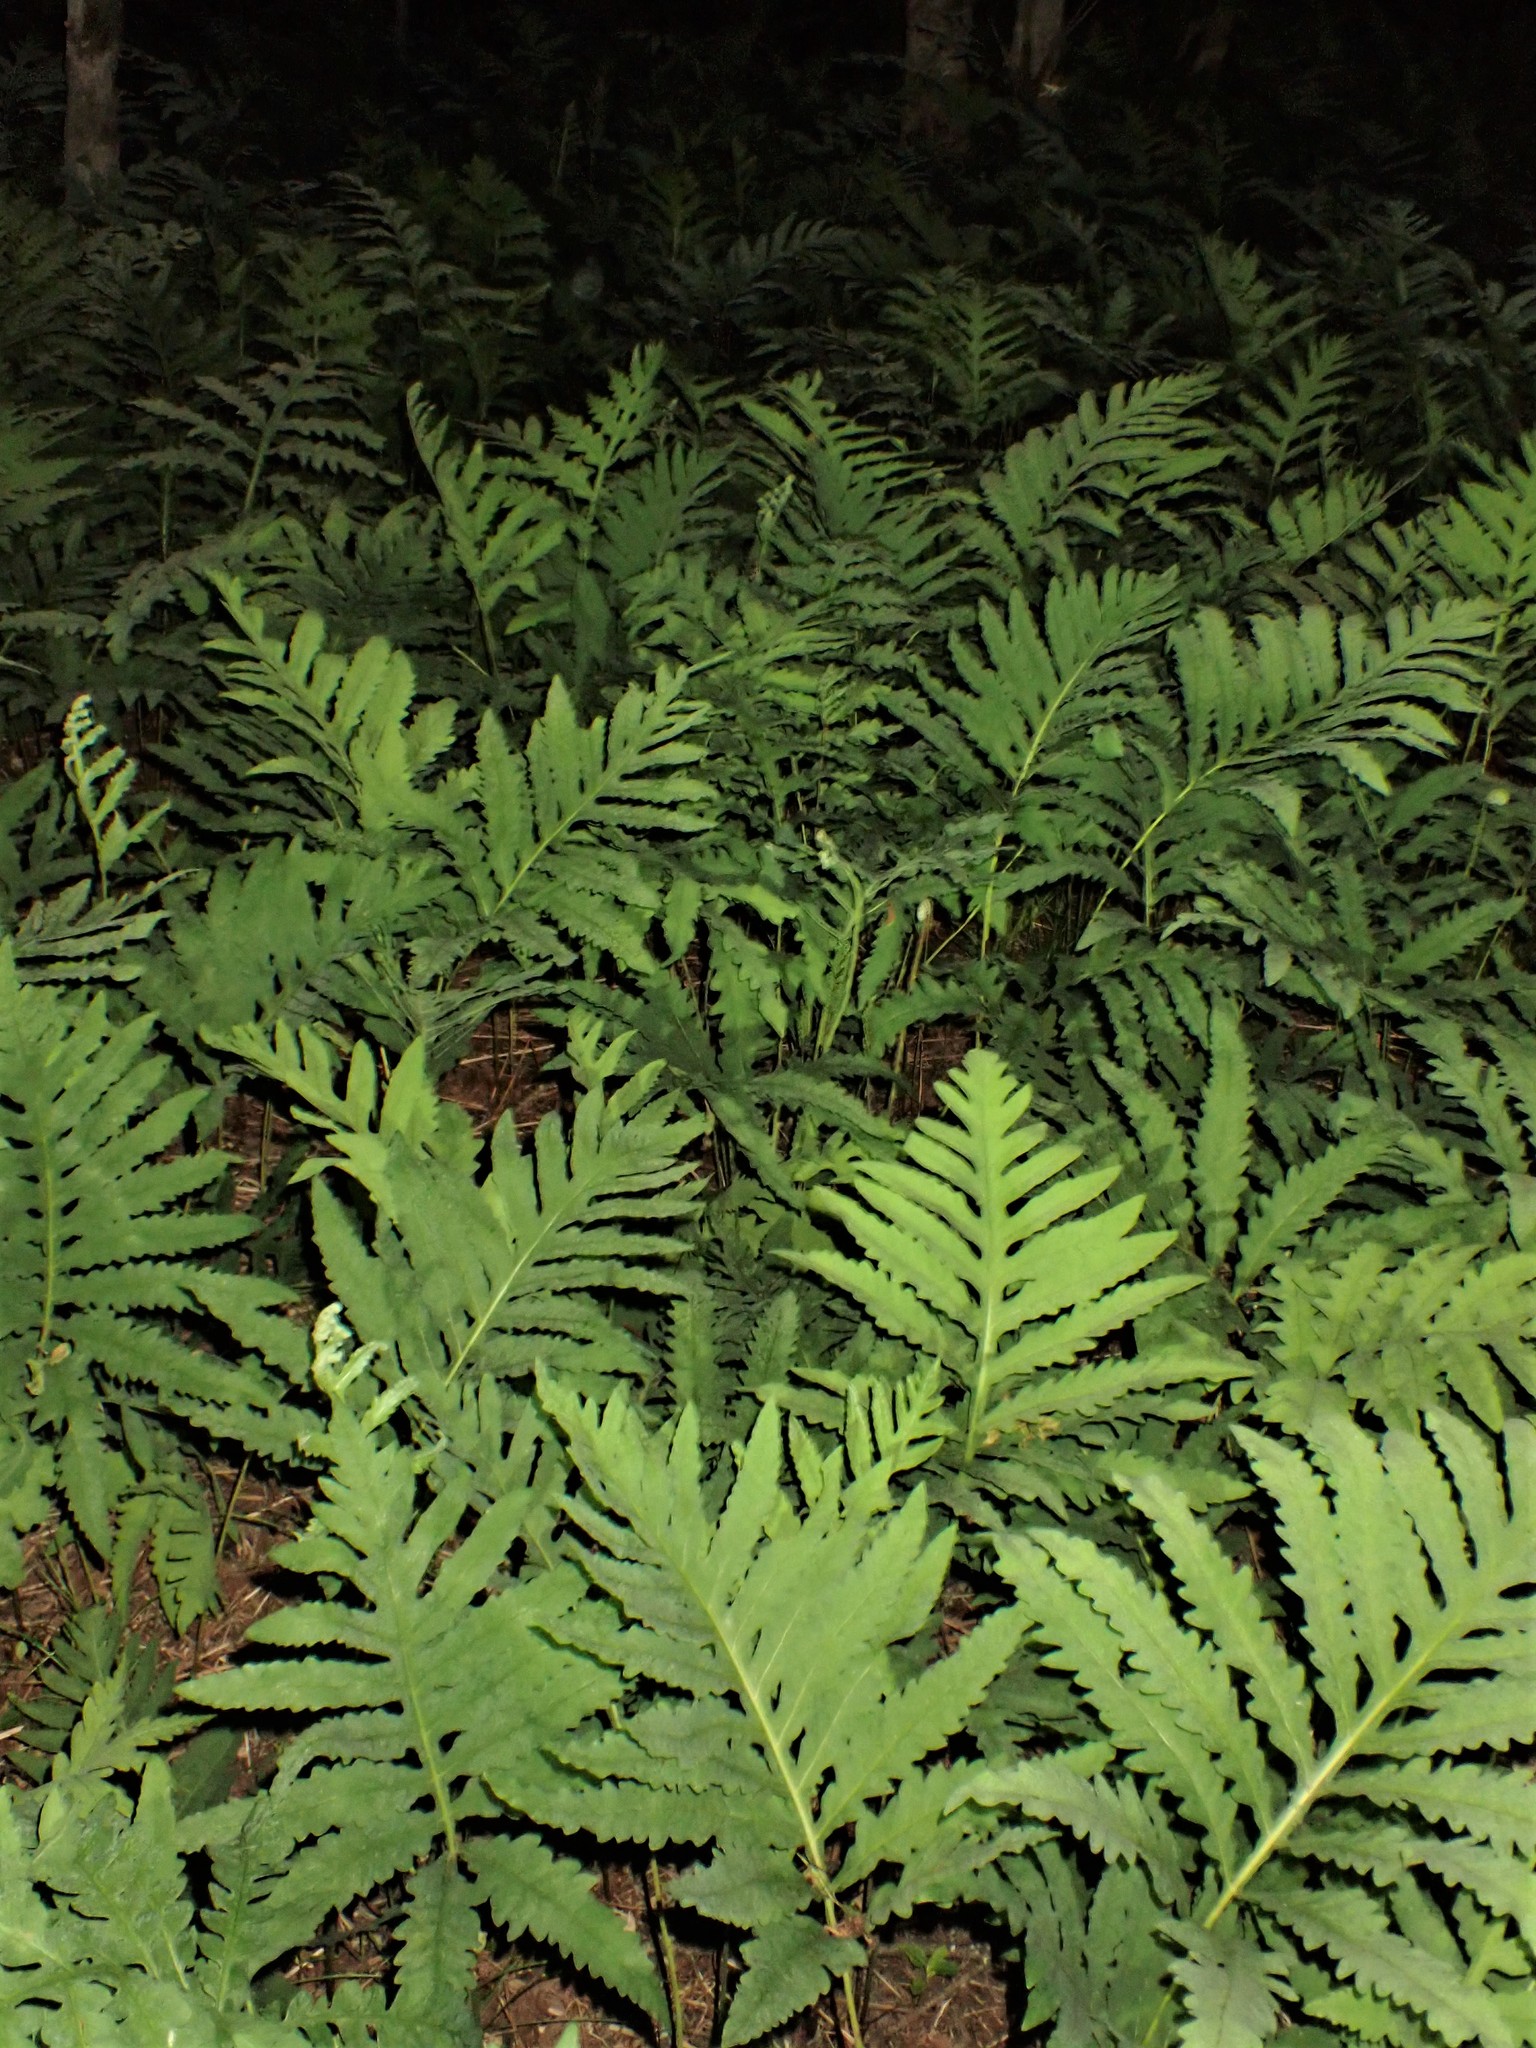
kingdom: Plantae
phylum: Tracheophyta
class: Polypodiopsida
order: Polypodiales
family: Onocleaceae
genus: Onoclea
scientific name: Onoclea sensibilis
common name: Sensitive fern
